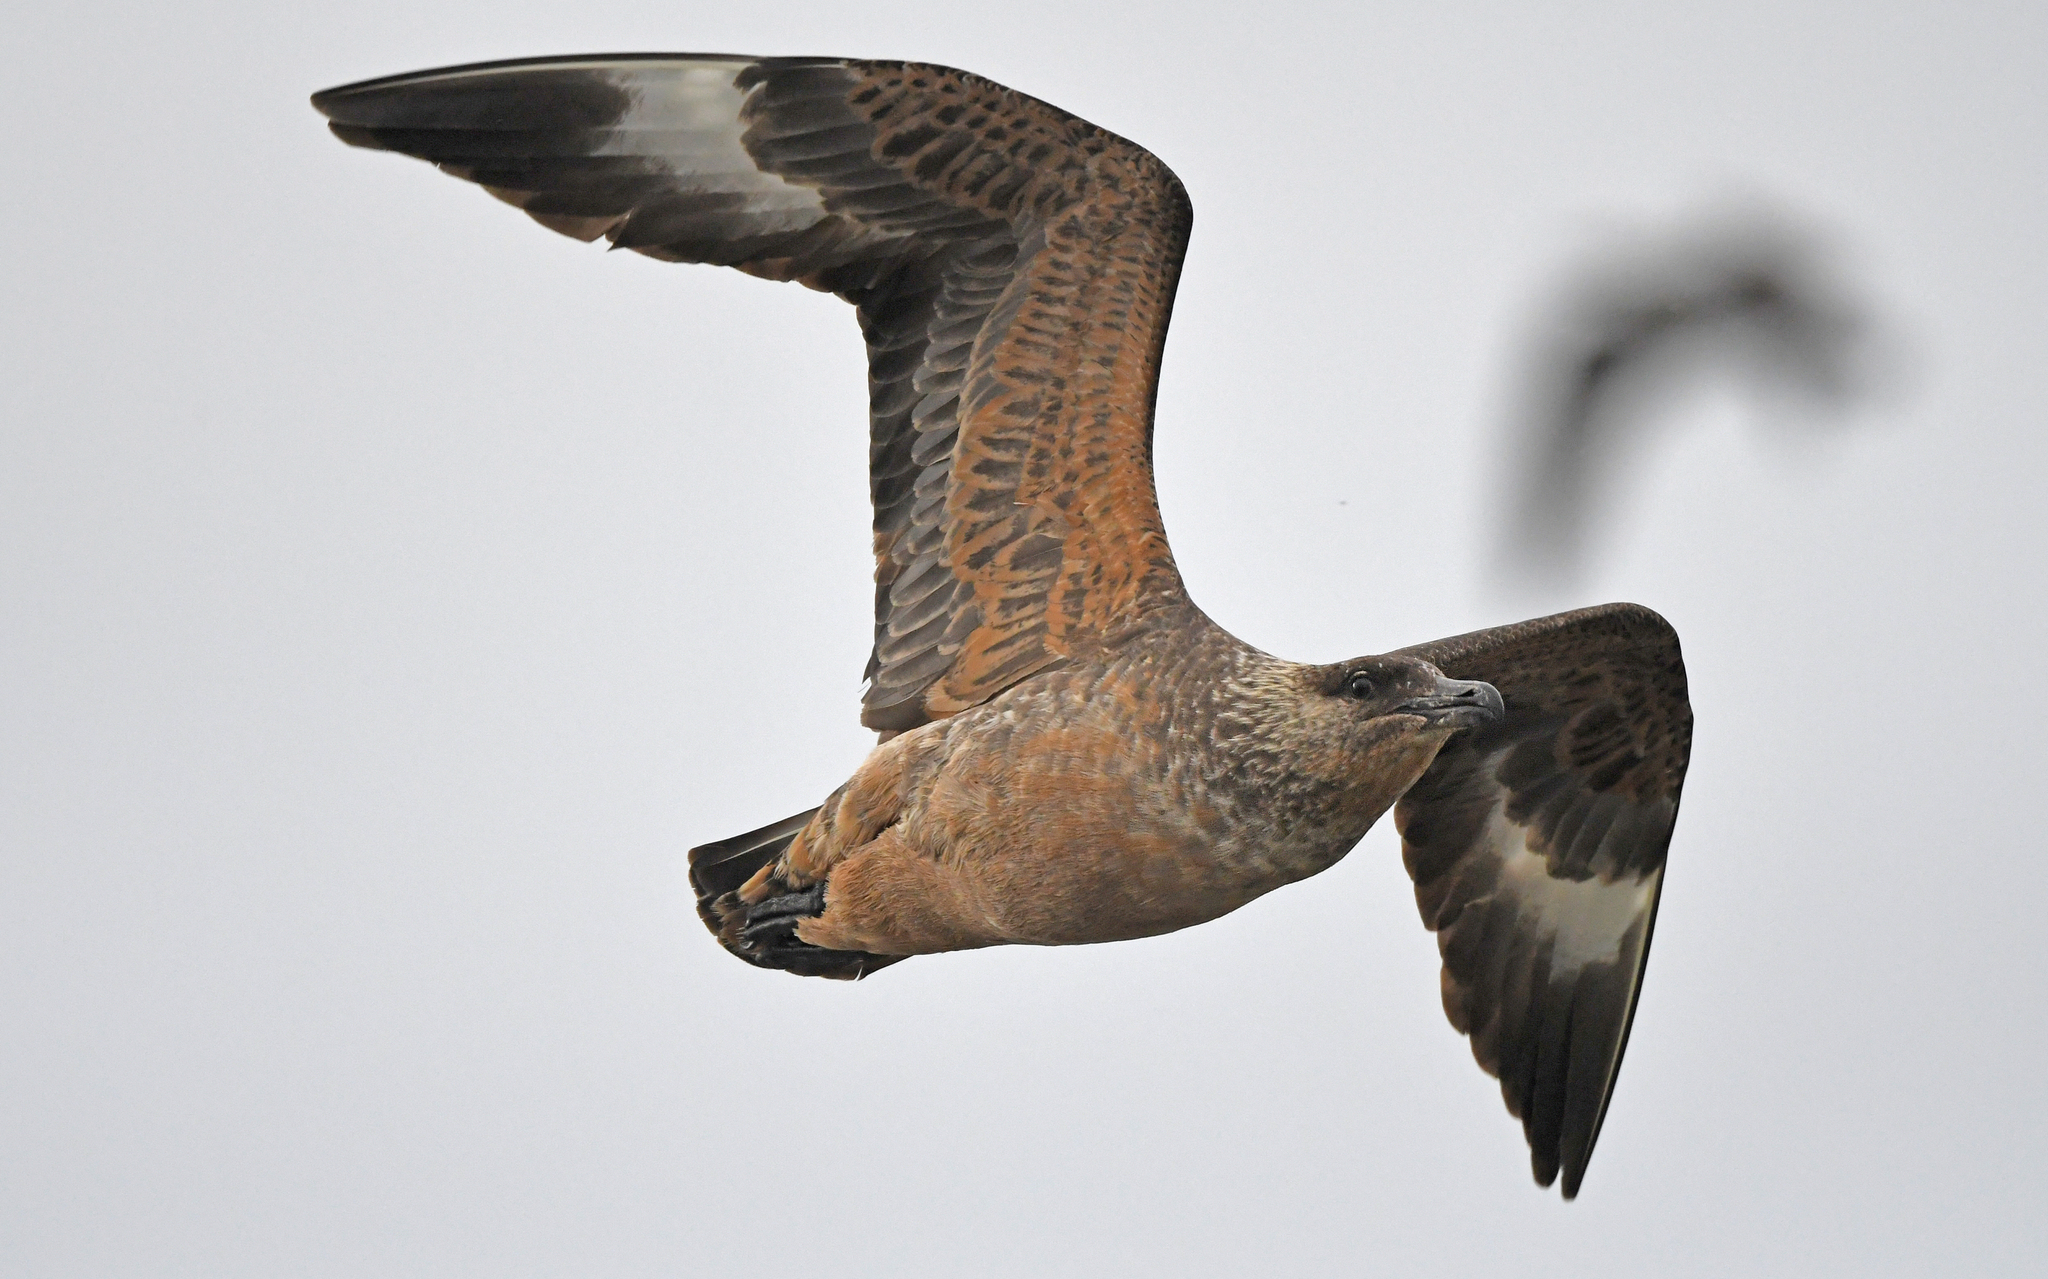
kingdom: Animalia
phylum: Chordata
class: Aves
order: Charadriiformes
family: Stercorariidae
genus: Stercorarius
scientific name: Stercorarius chilensis
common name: Chilean skua
